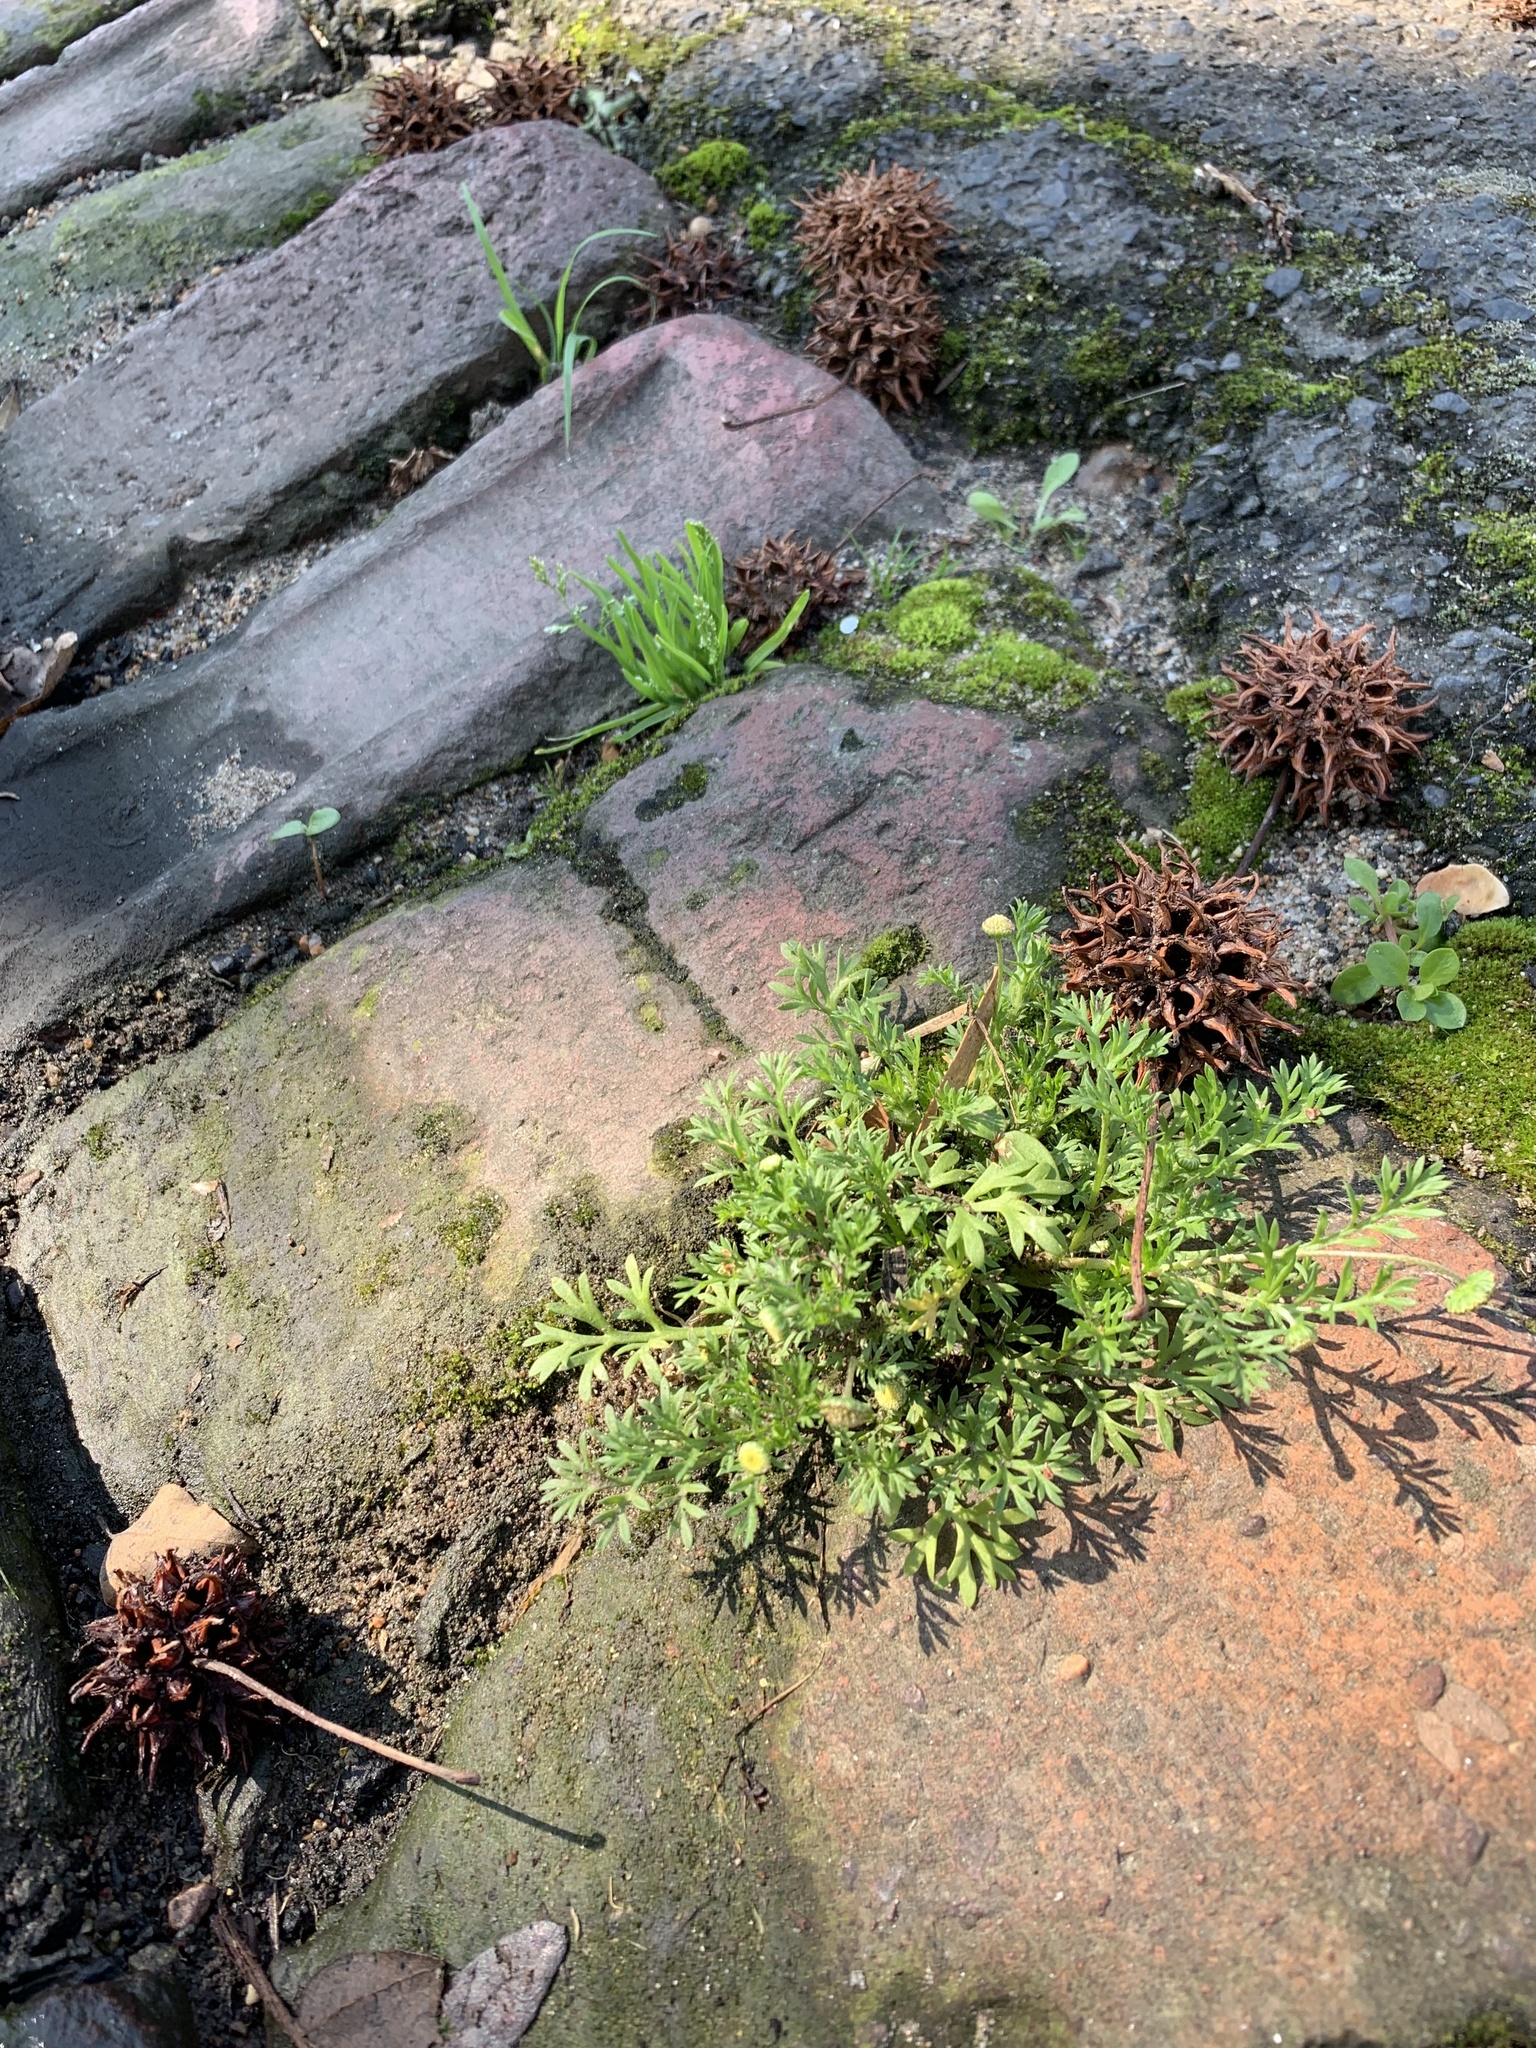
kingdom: Plantae
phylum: Tracheophyta
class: Magnoliopsida
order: Asterales
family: Asteraceae
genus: Cotula
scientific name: Cotula australis
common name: Australian waterbuttons
